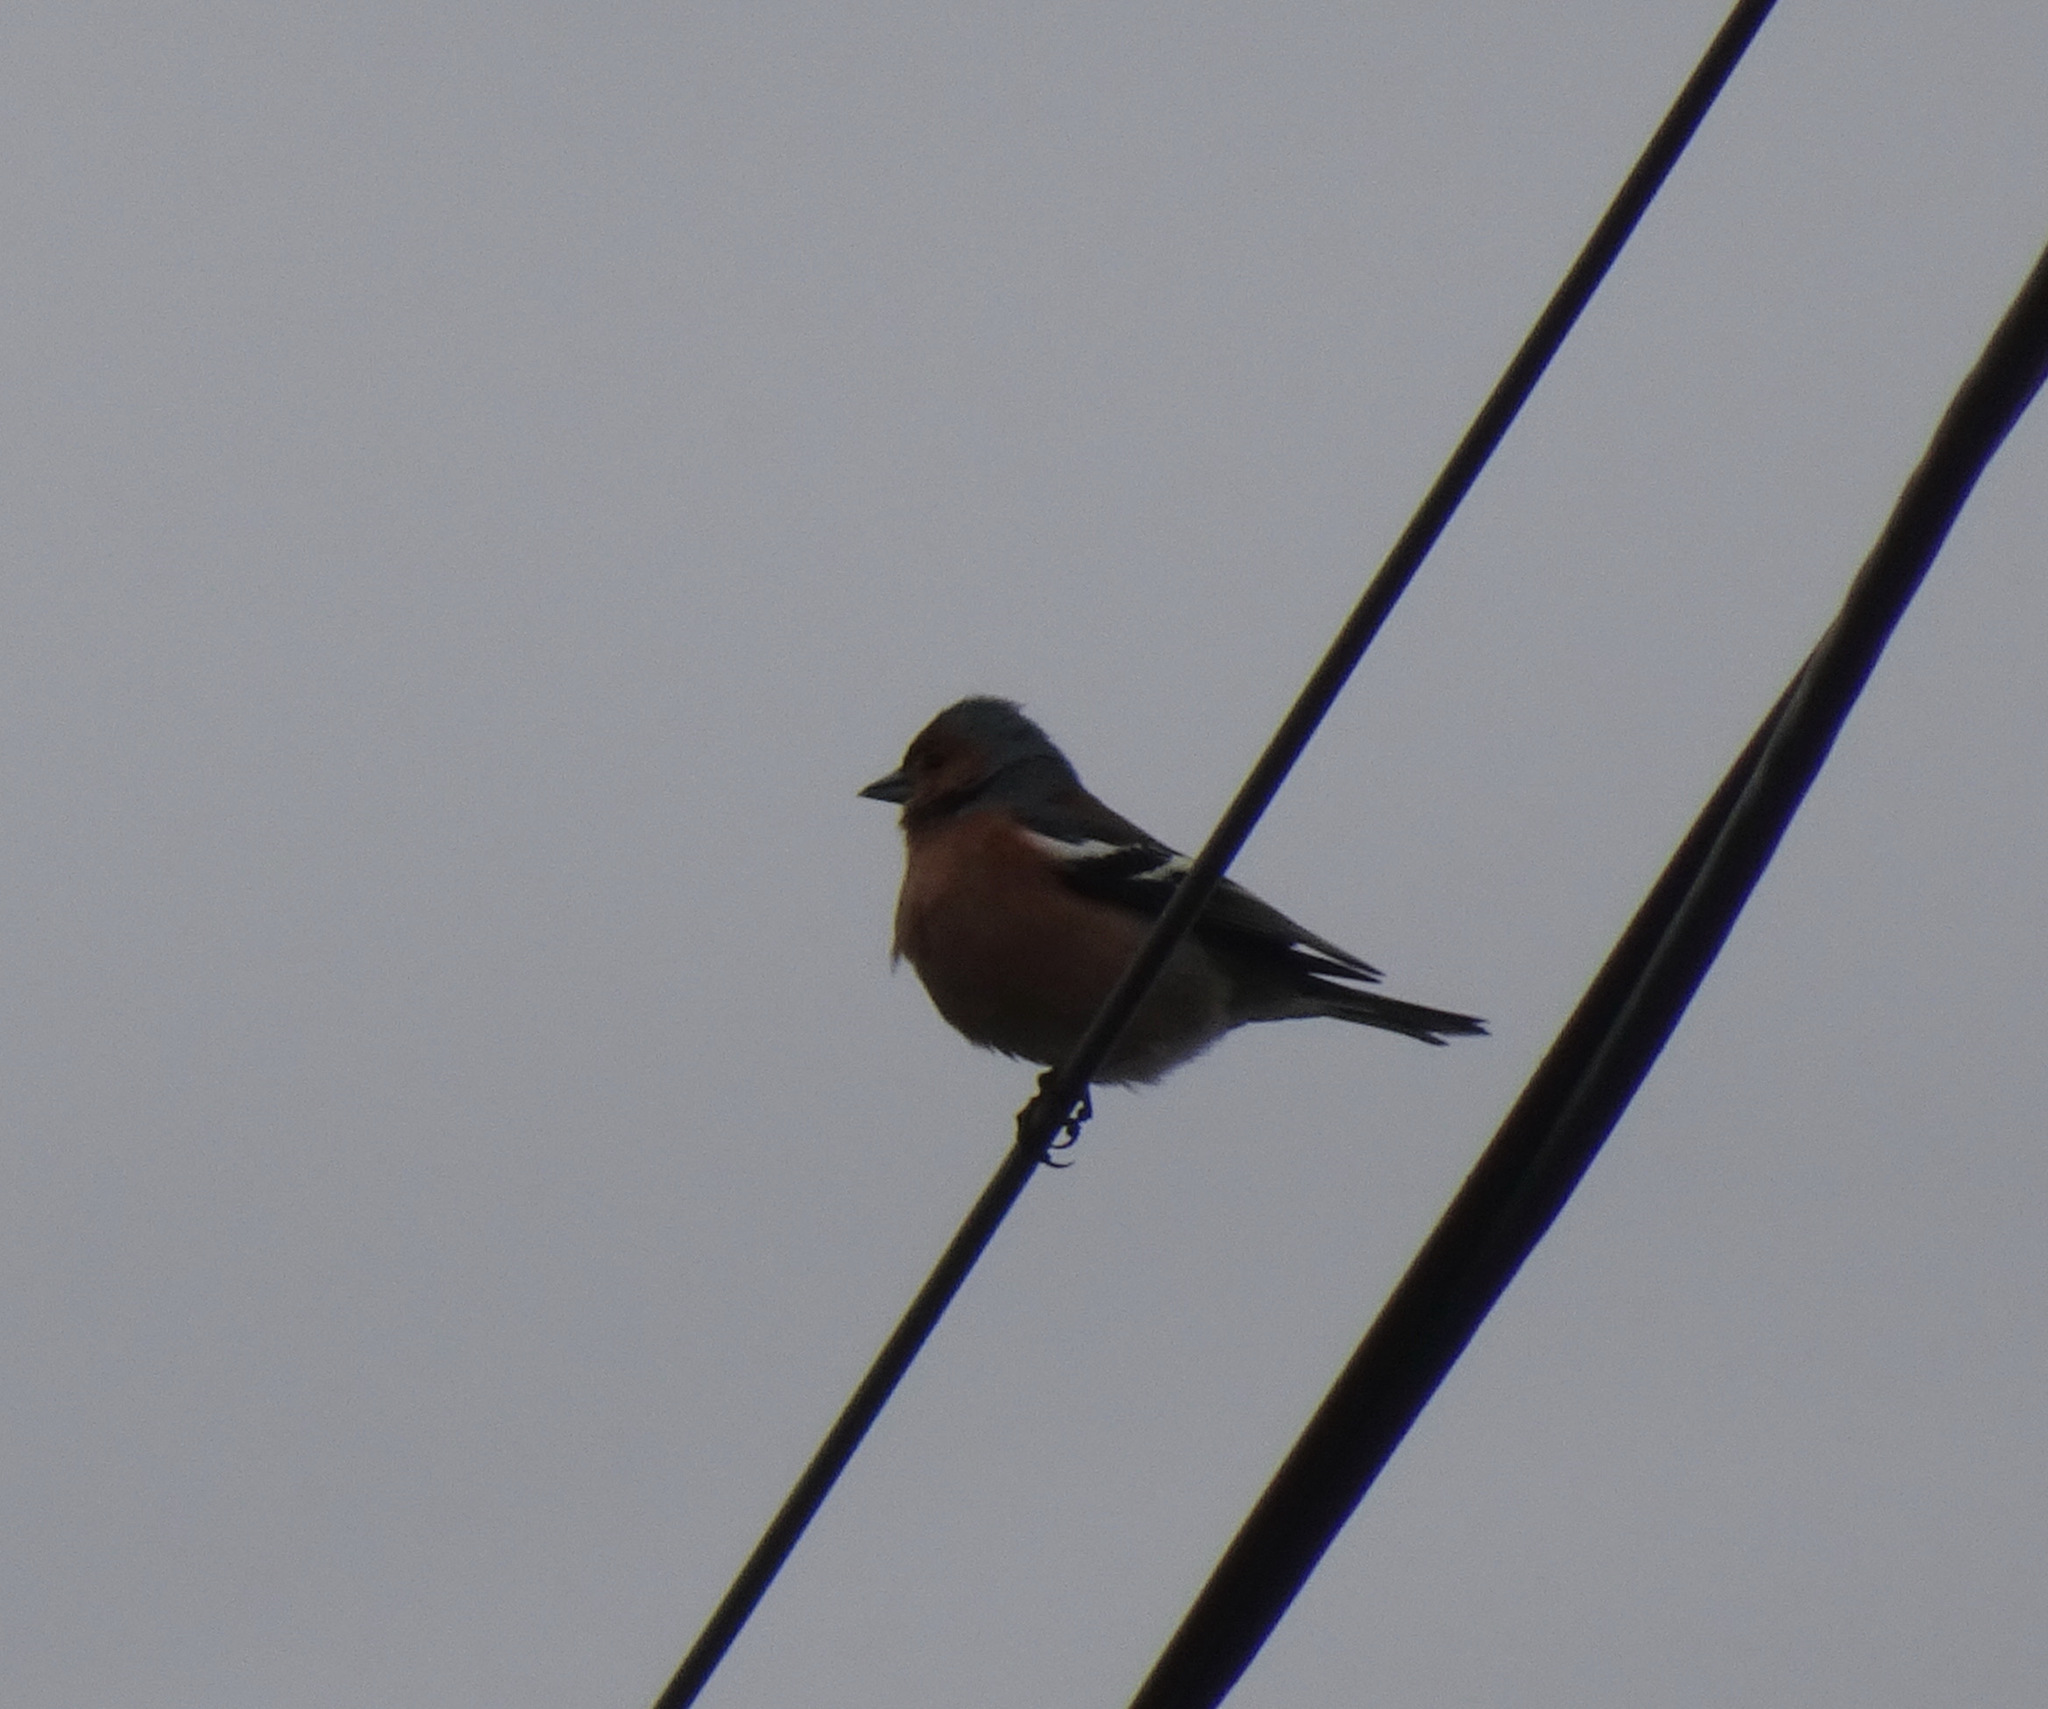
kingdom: Animalia
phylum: Chordata
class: Aves
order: Passeriformes
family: Fringillidae
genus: Fringilla
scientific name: Fringilla coelebs
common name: Common chaffinch
